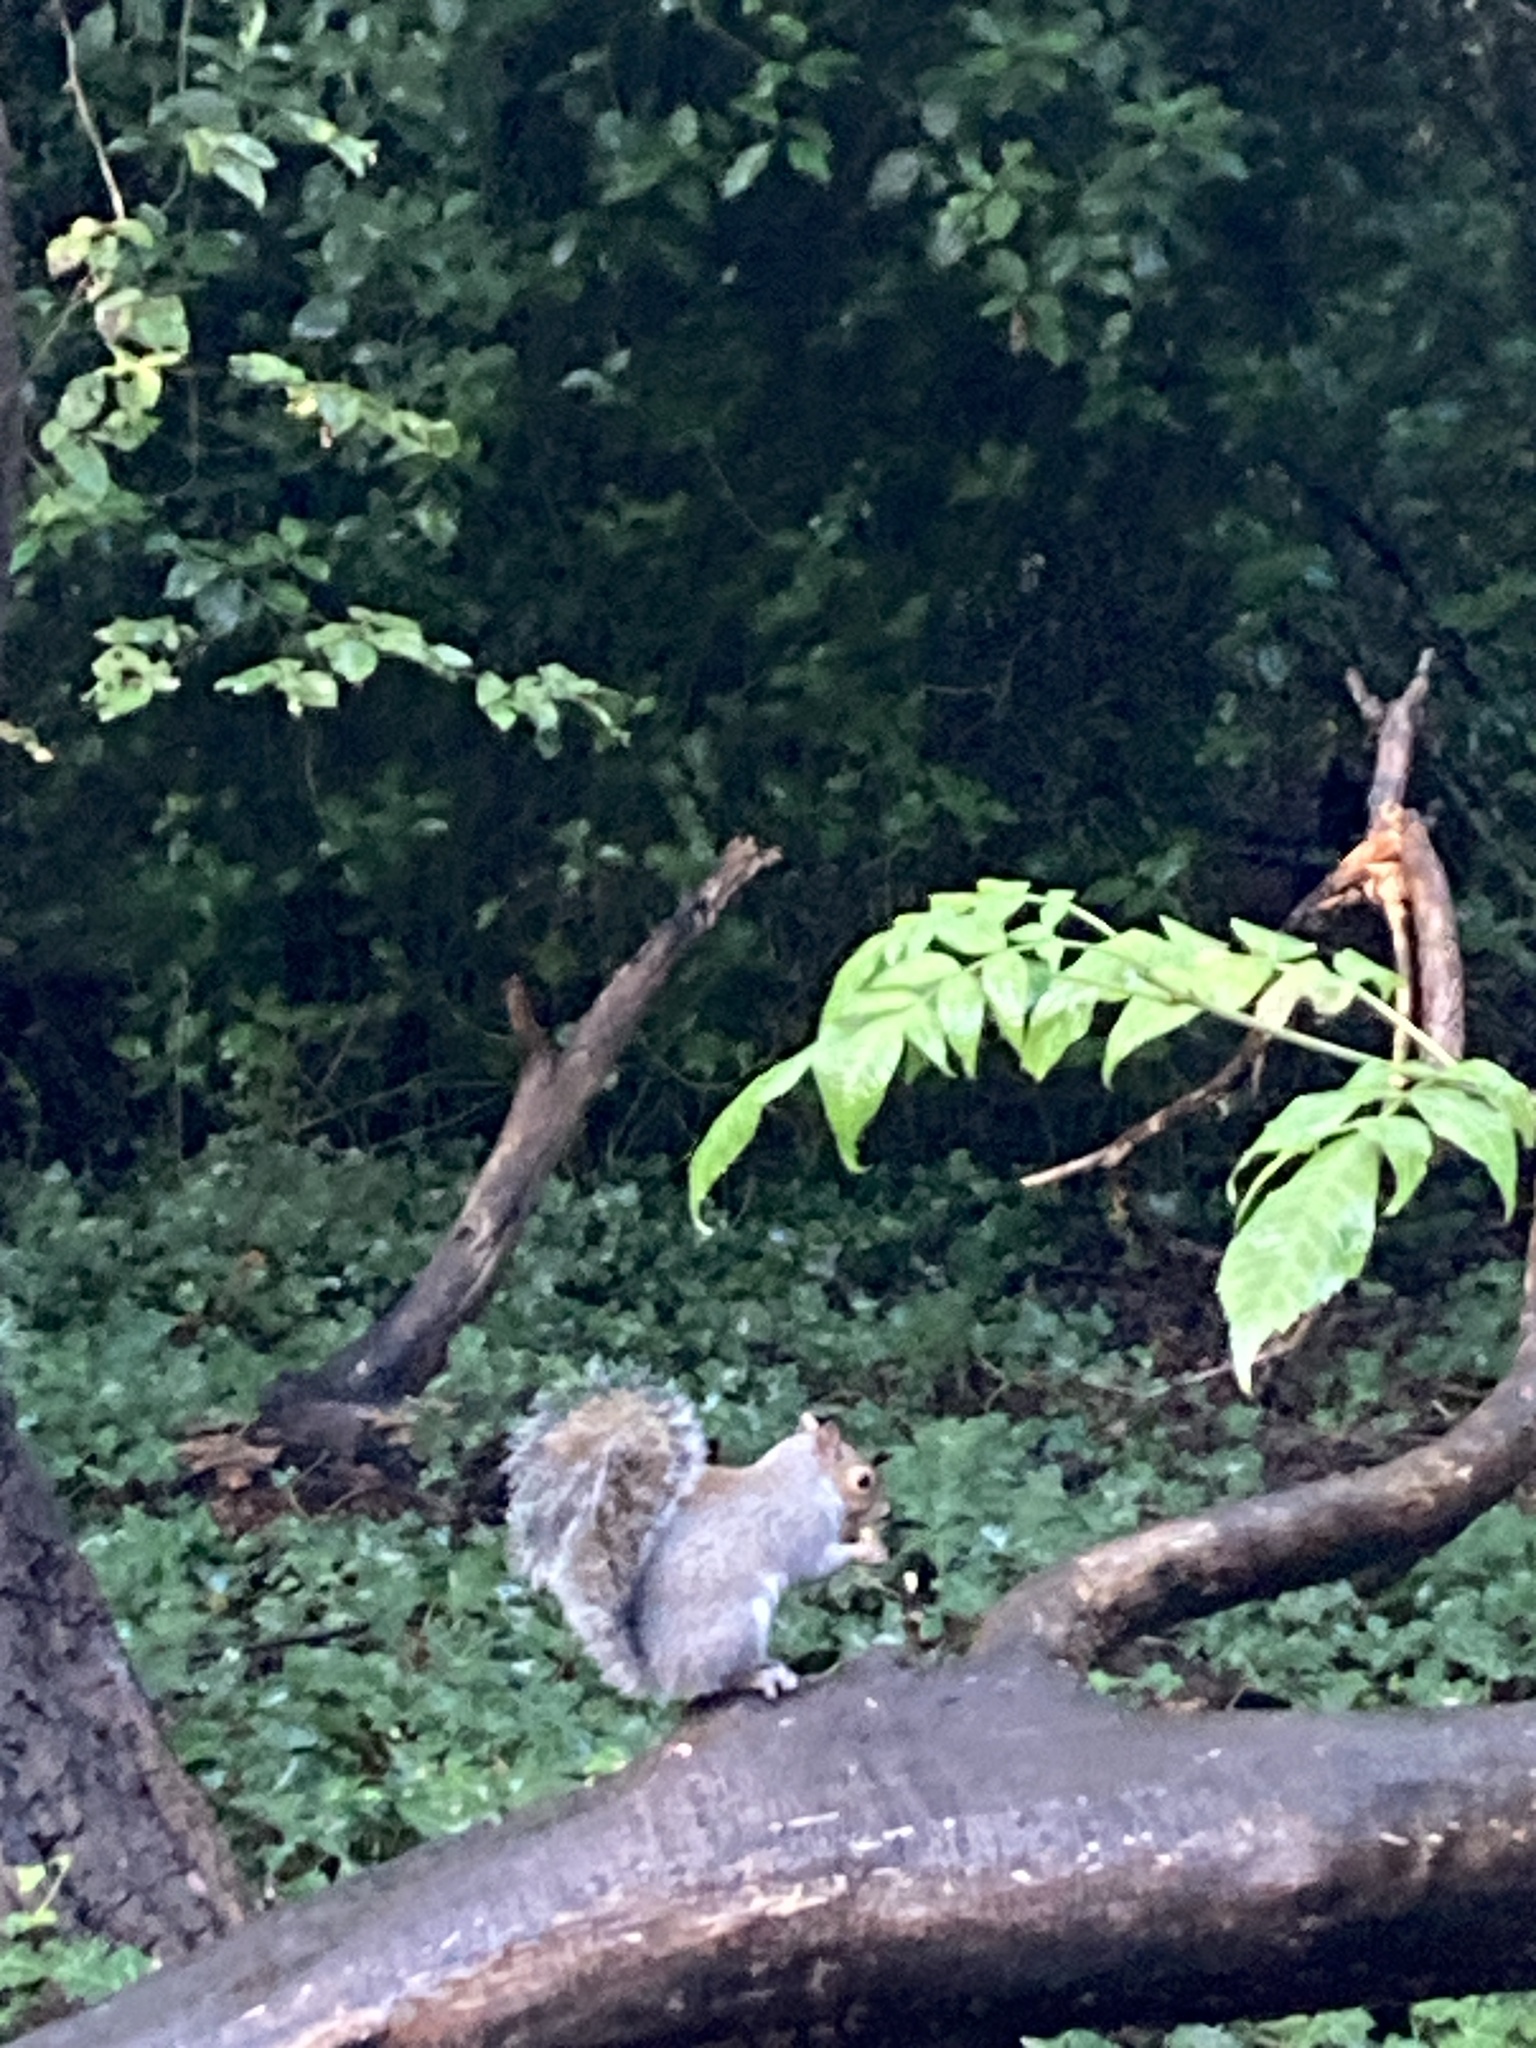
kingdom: Animalia
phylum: Chordata
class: Mammalia
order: Rodentia
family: Sciuridae
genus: Sciurus
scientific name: Sciurus carolinensis
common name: Eastern gray squirrel
